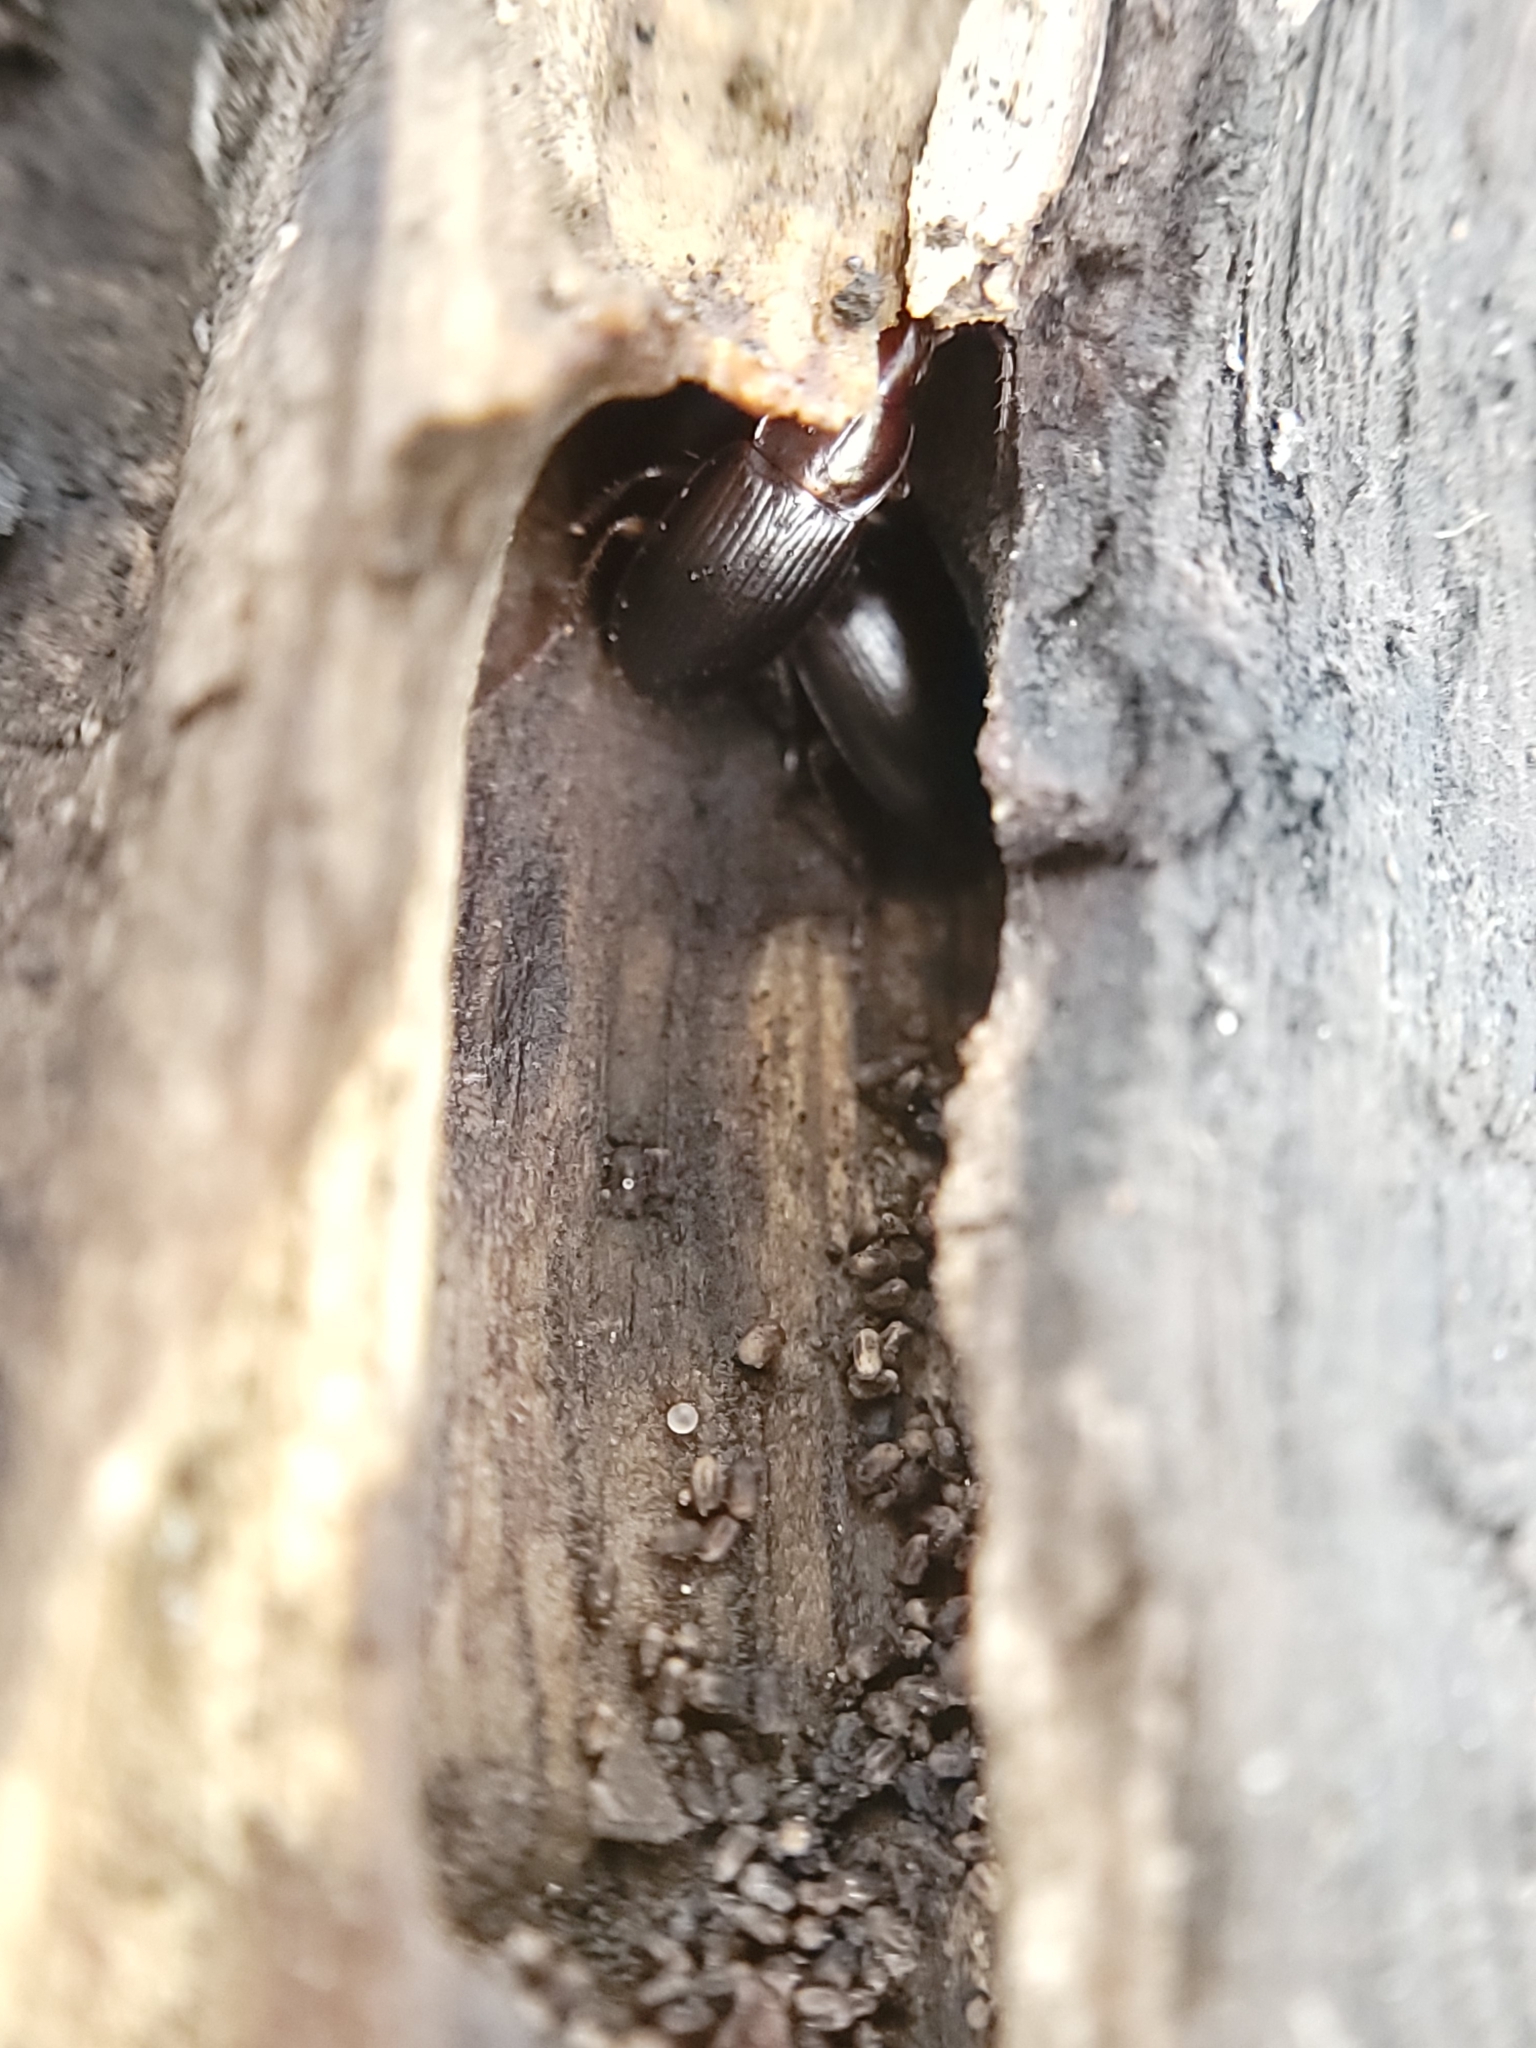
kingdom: Animalia
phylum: Arthropoda
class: Insecta
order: Coleoptera
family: Carabidae
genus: Calathus
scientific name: Calathus ruficollis
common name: Red-collared harp ground beetle
